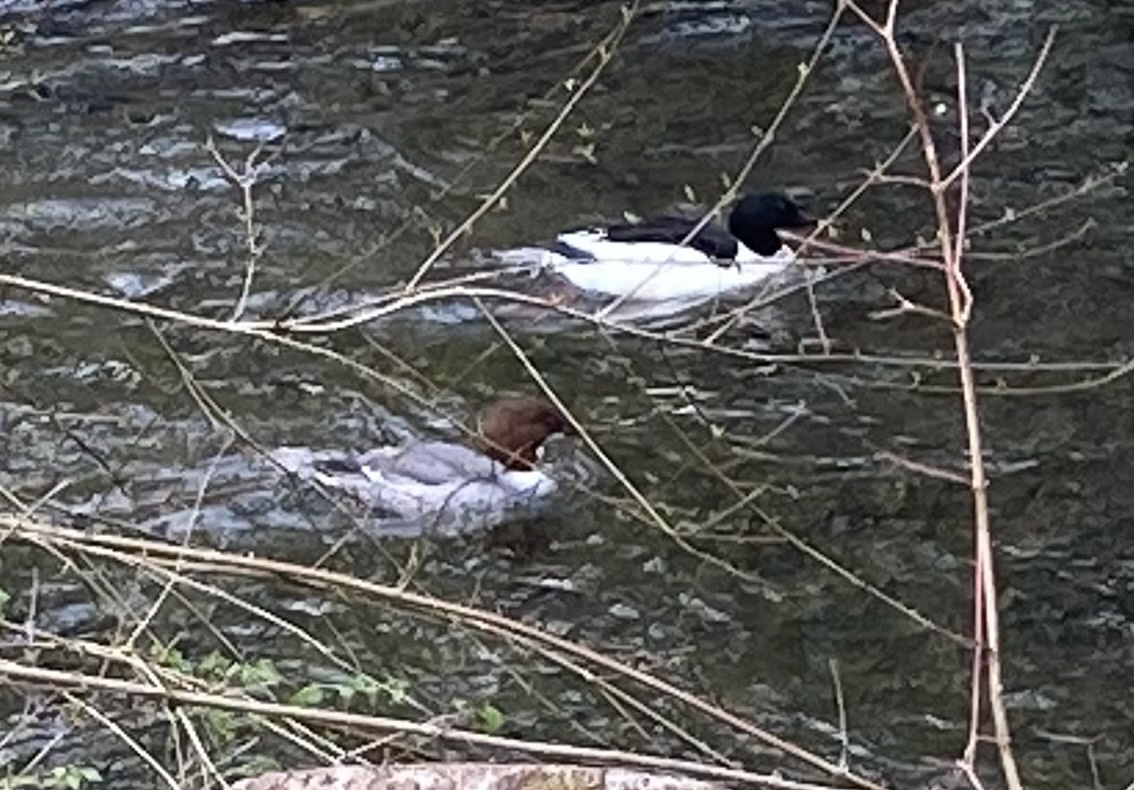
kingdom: Animalia
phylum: Chordata
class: Aves
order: Anseriformes
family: Anatidae
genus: Mergus
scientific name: Mergus merganser
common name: Common merganser
